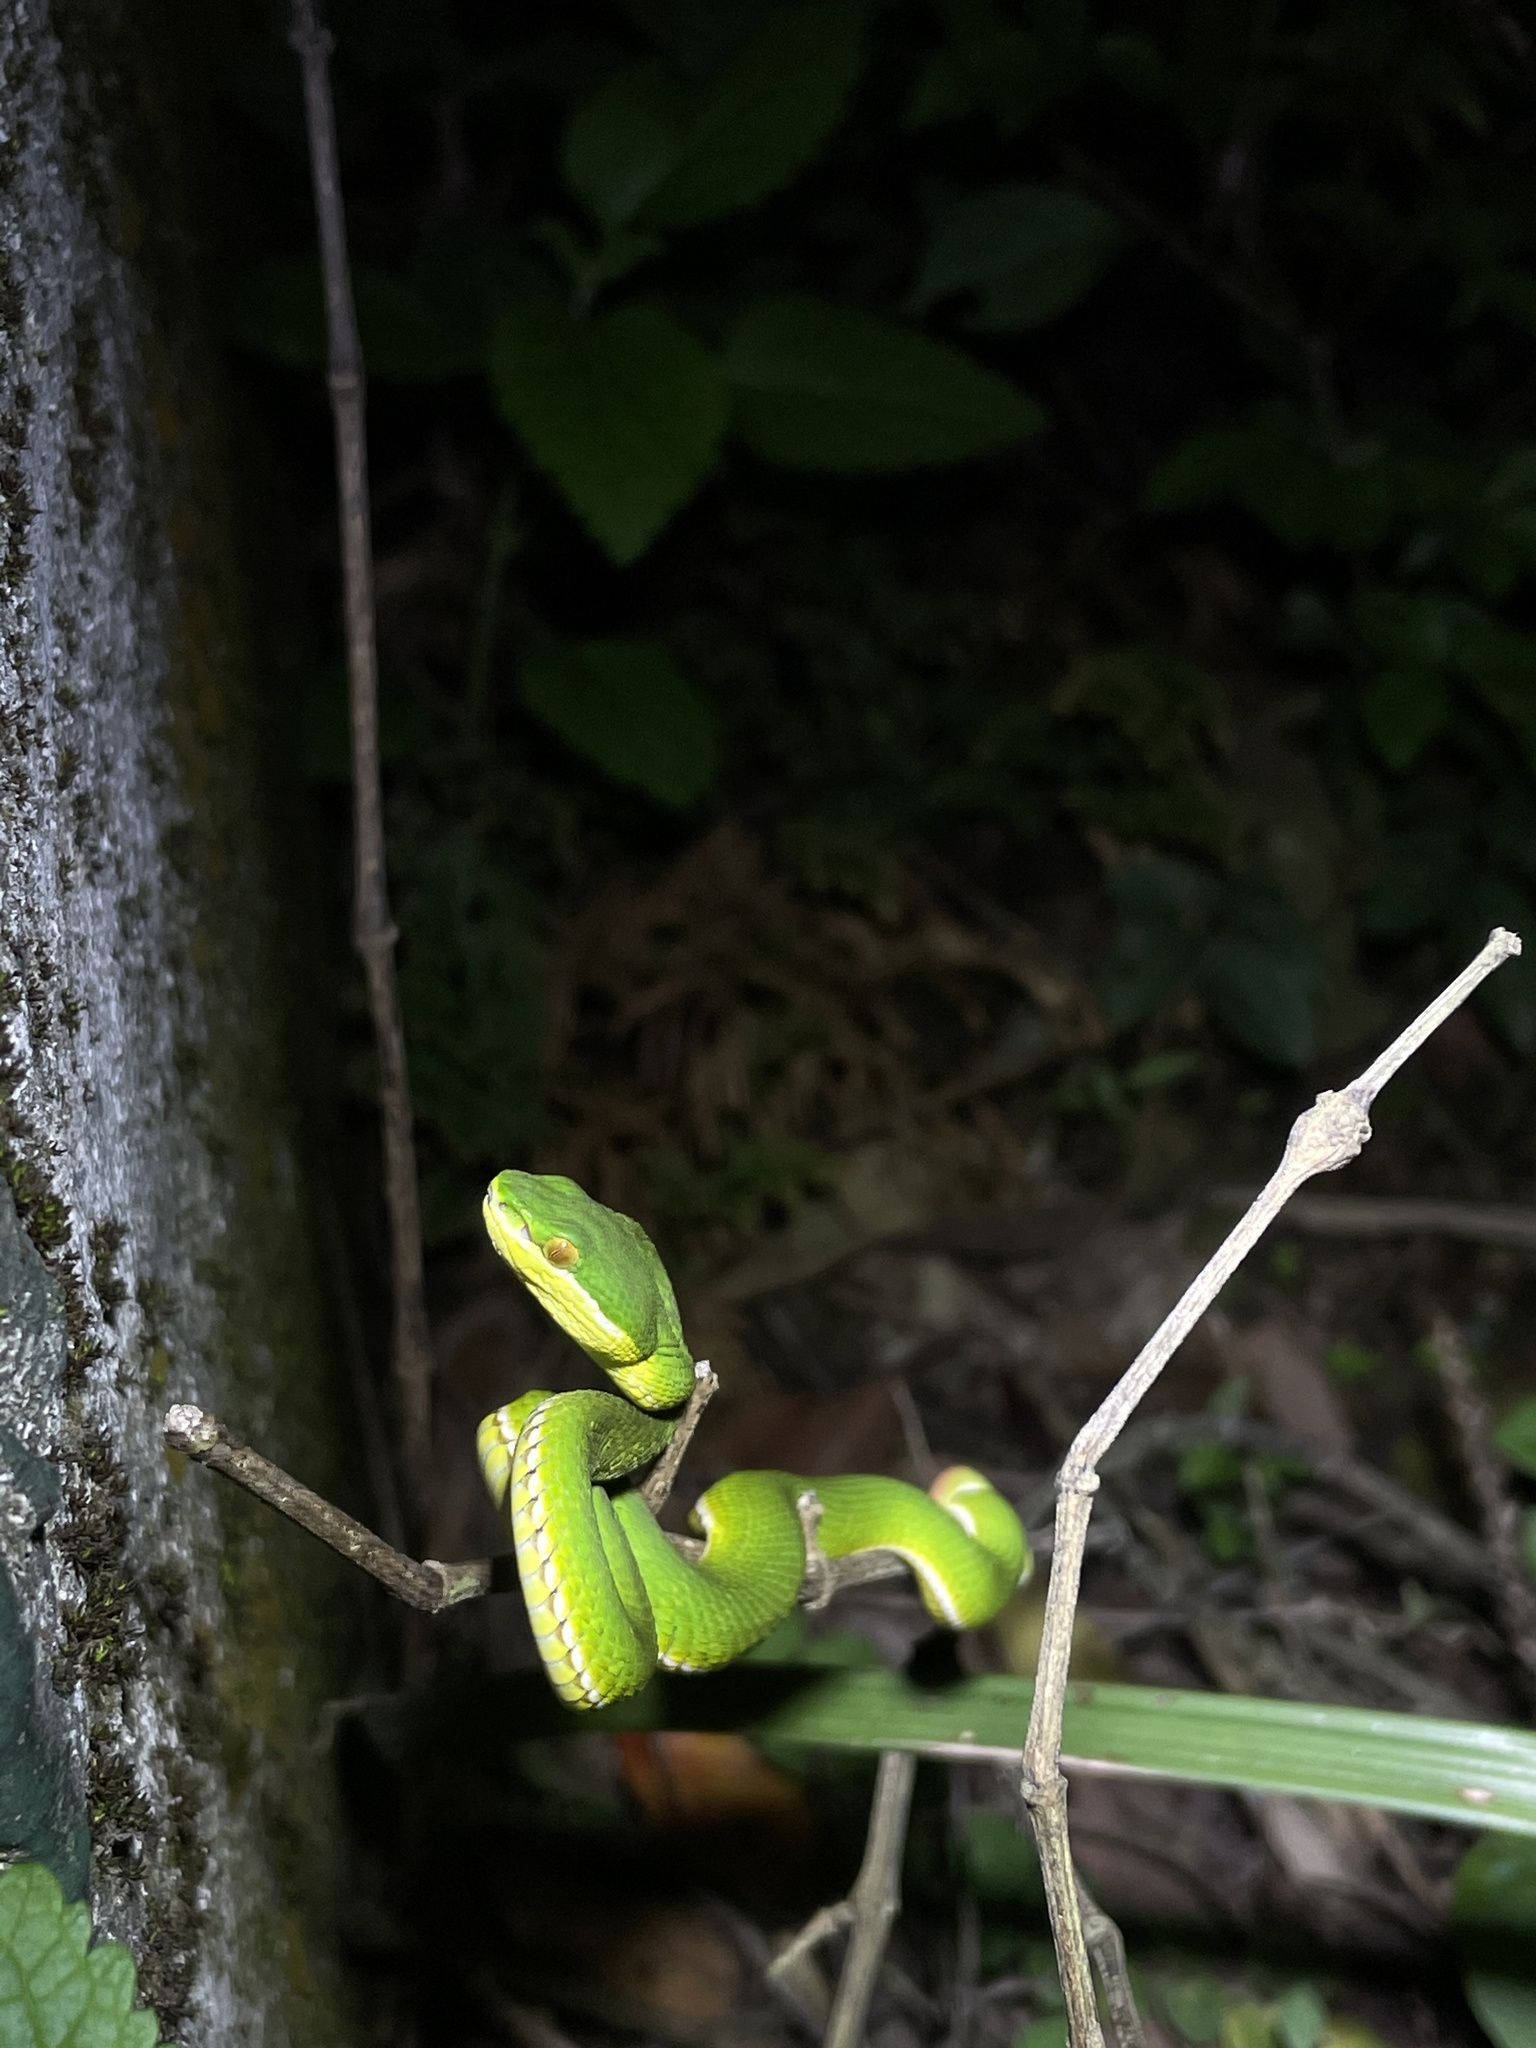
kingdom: Animalia
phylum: Chordata
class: Squamata
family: Viperidae
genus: Trimeresurus
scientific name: Trimeresurus albolabris
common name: White-lipped pitviper
